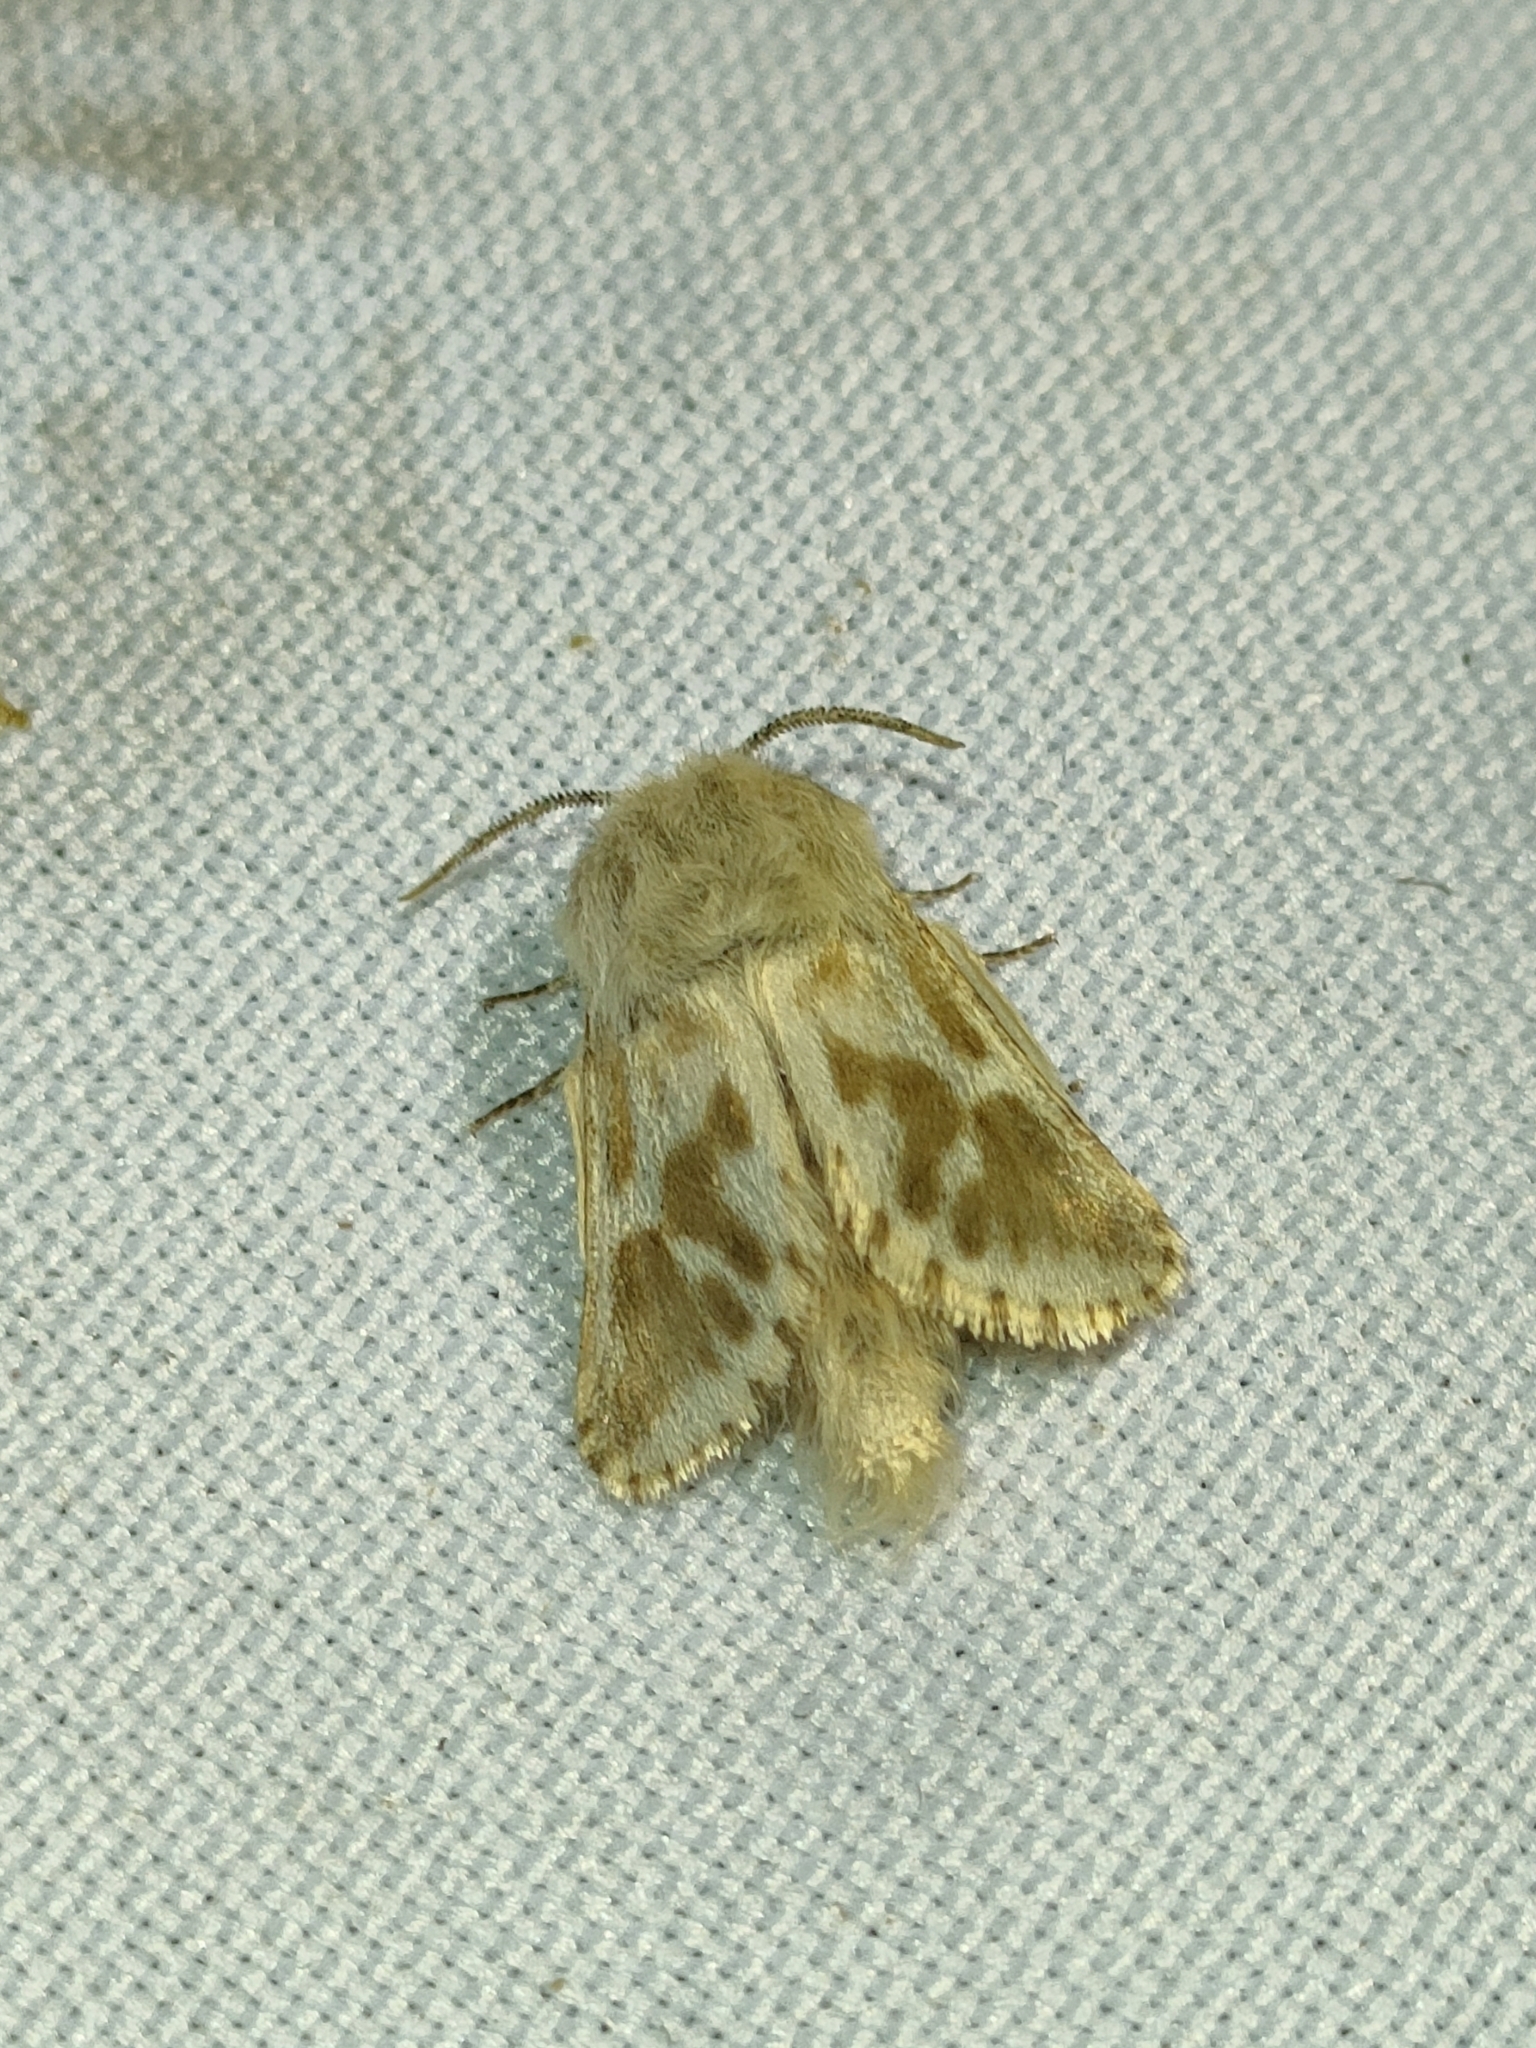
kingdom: Animalia
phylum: Arthropoda
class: Insecta
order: Lepidoptera
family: Cossidae
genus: Dyspessa
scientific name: Dyspessa ulula
